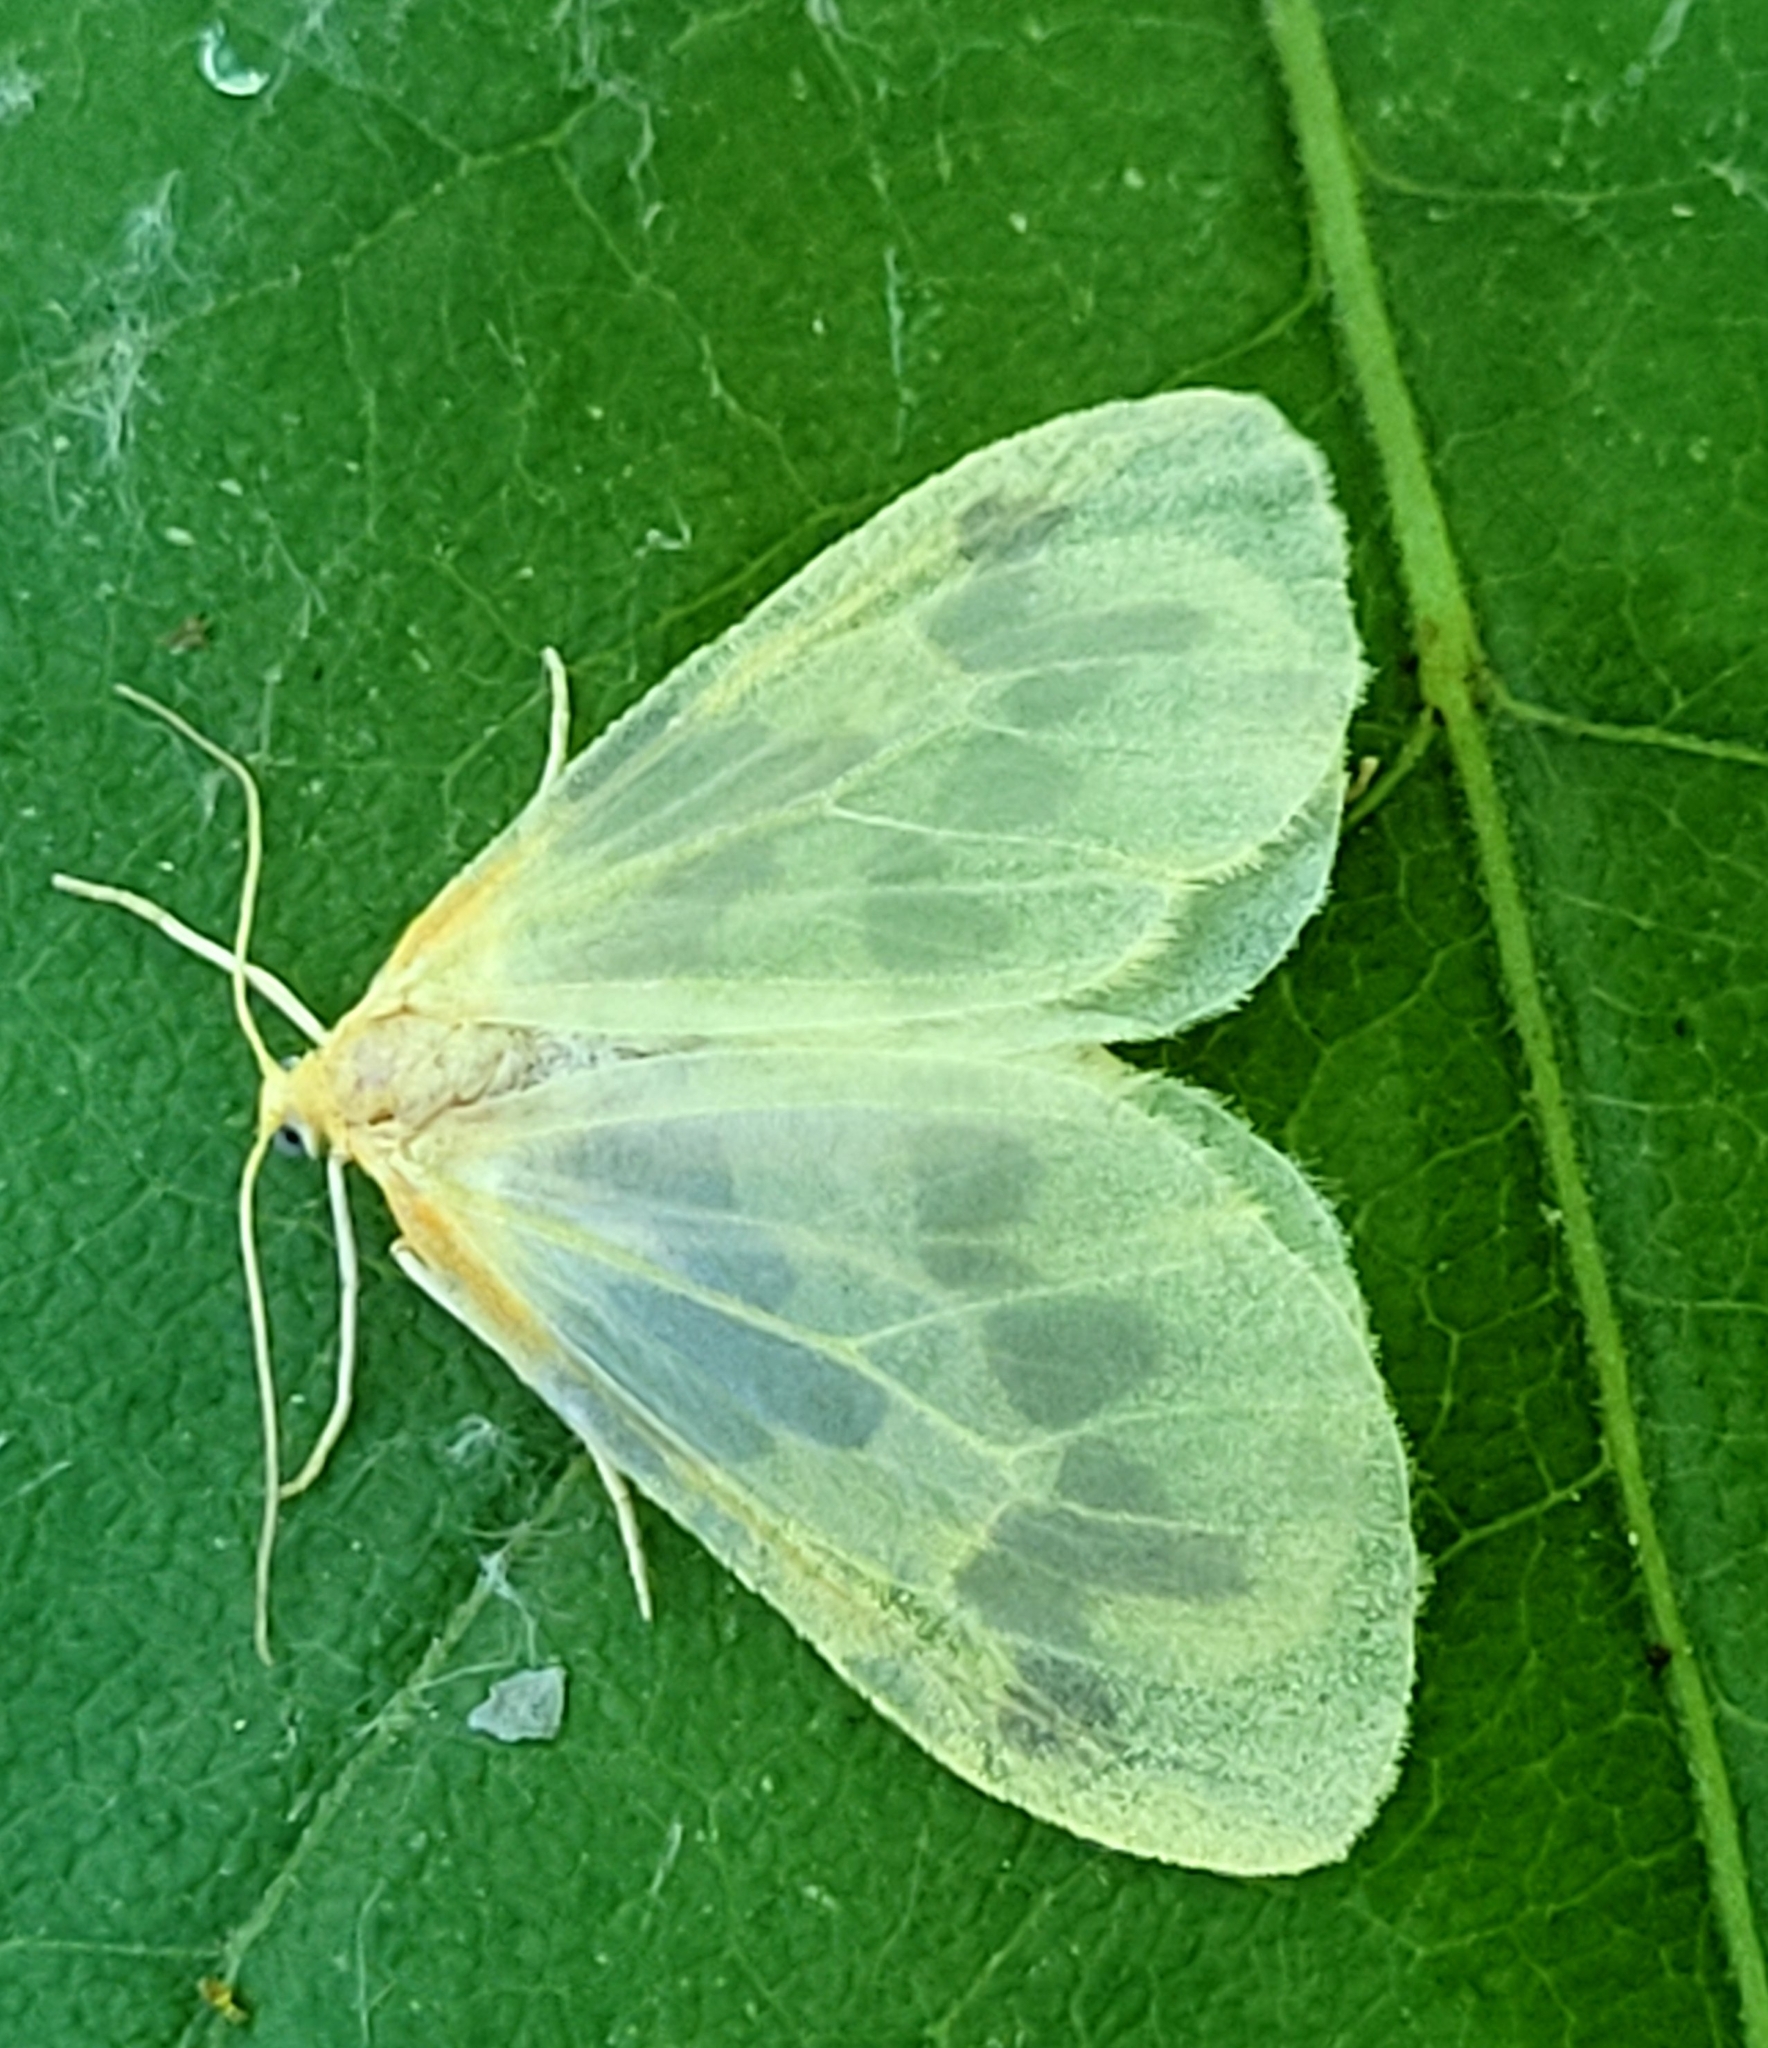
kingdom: Animalia
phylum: Arthropoda
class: Insecta
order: Lepidoptera
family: Geometridae
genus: Eubaphe
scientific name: Eubaphe mendica
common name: Beggar
